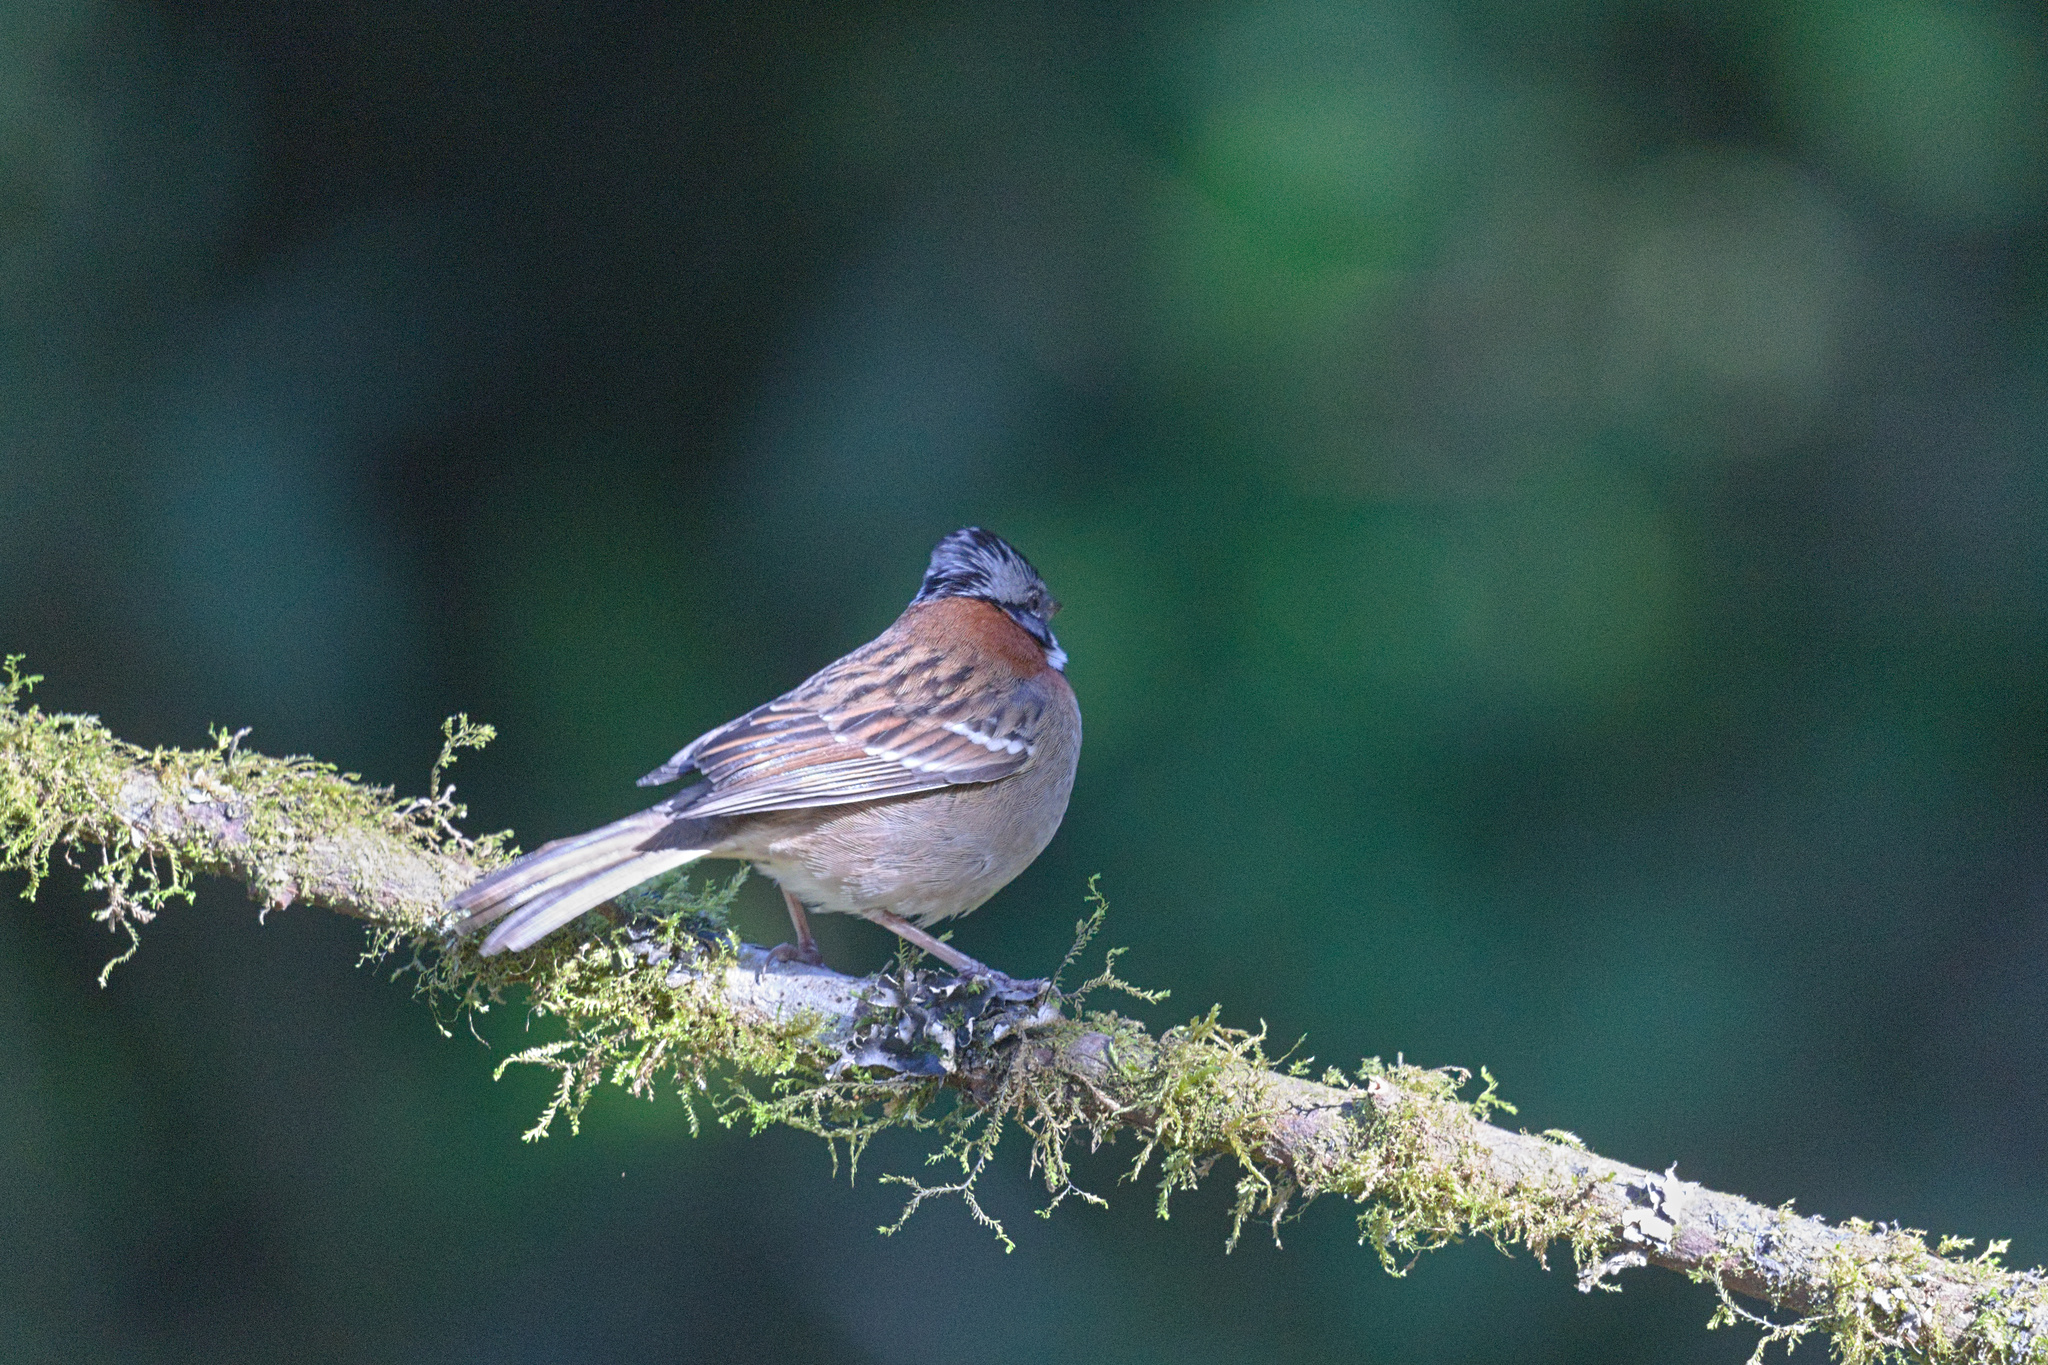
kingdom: Animalia
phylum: Chordata
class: Aves
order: Passeriformes
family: Passerellidae
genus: Zonotrichia
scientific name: Zonotrichia capensis
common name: Rufous-collared sparrow
